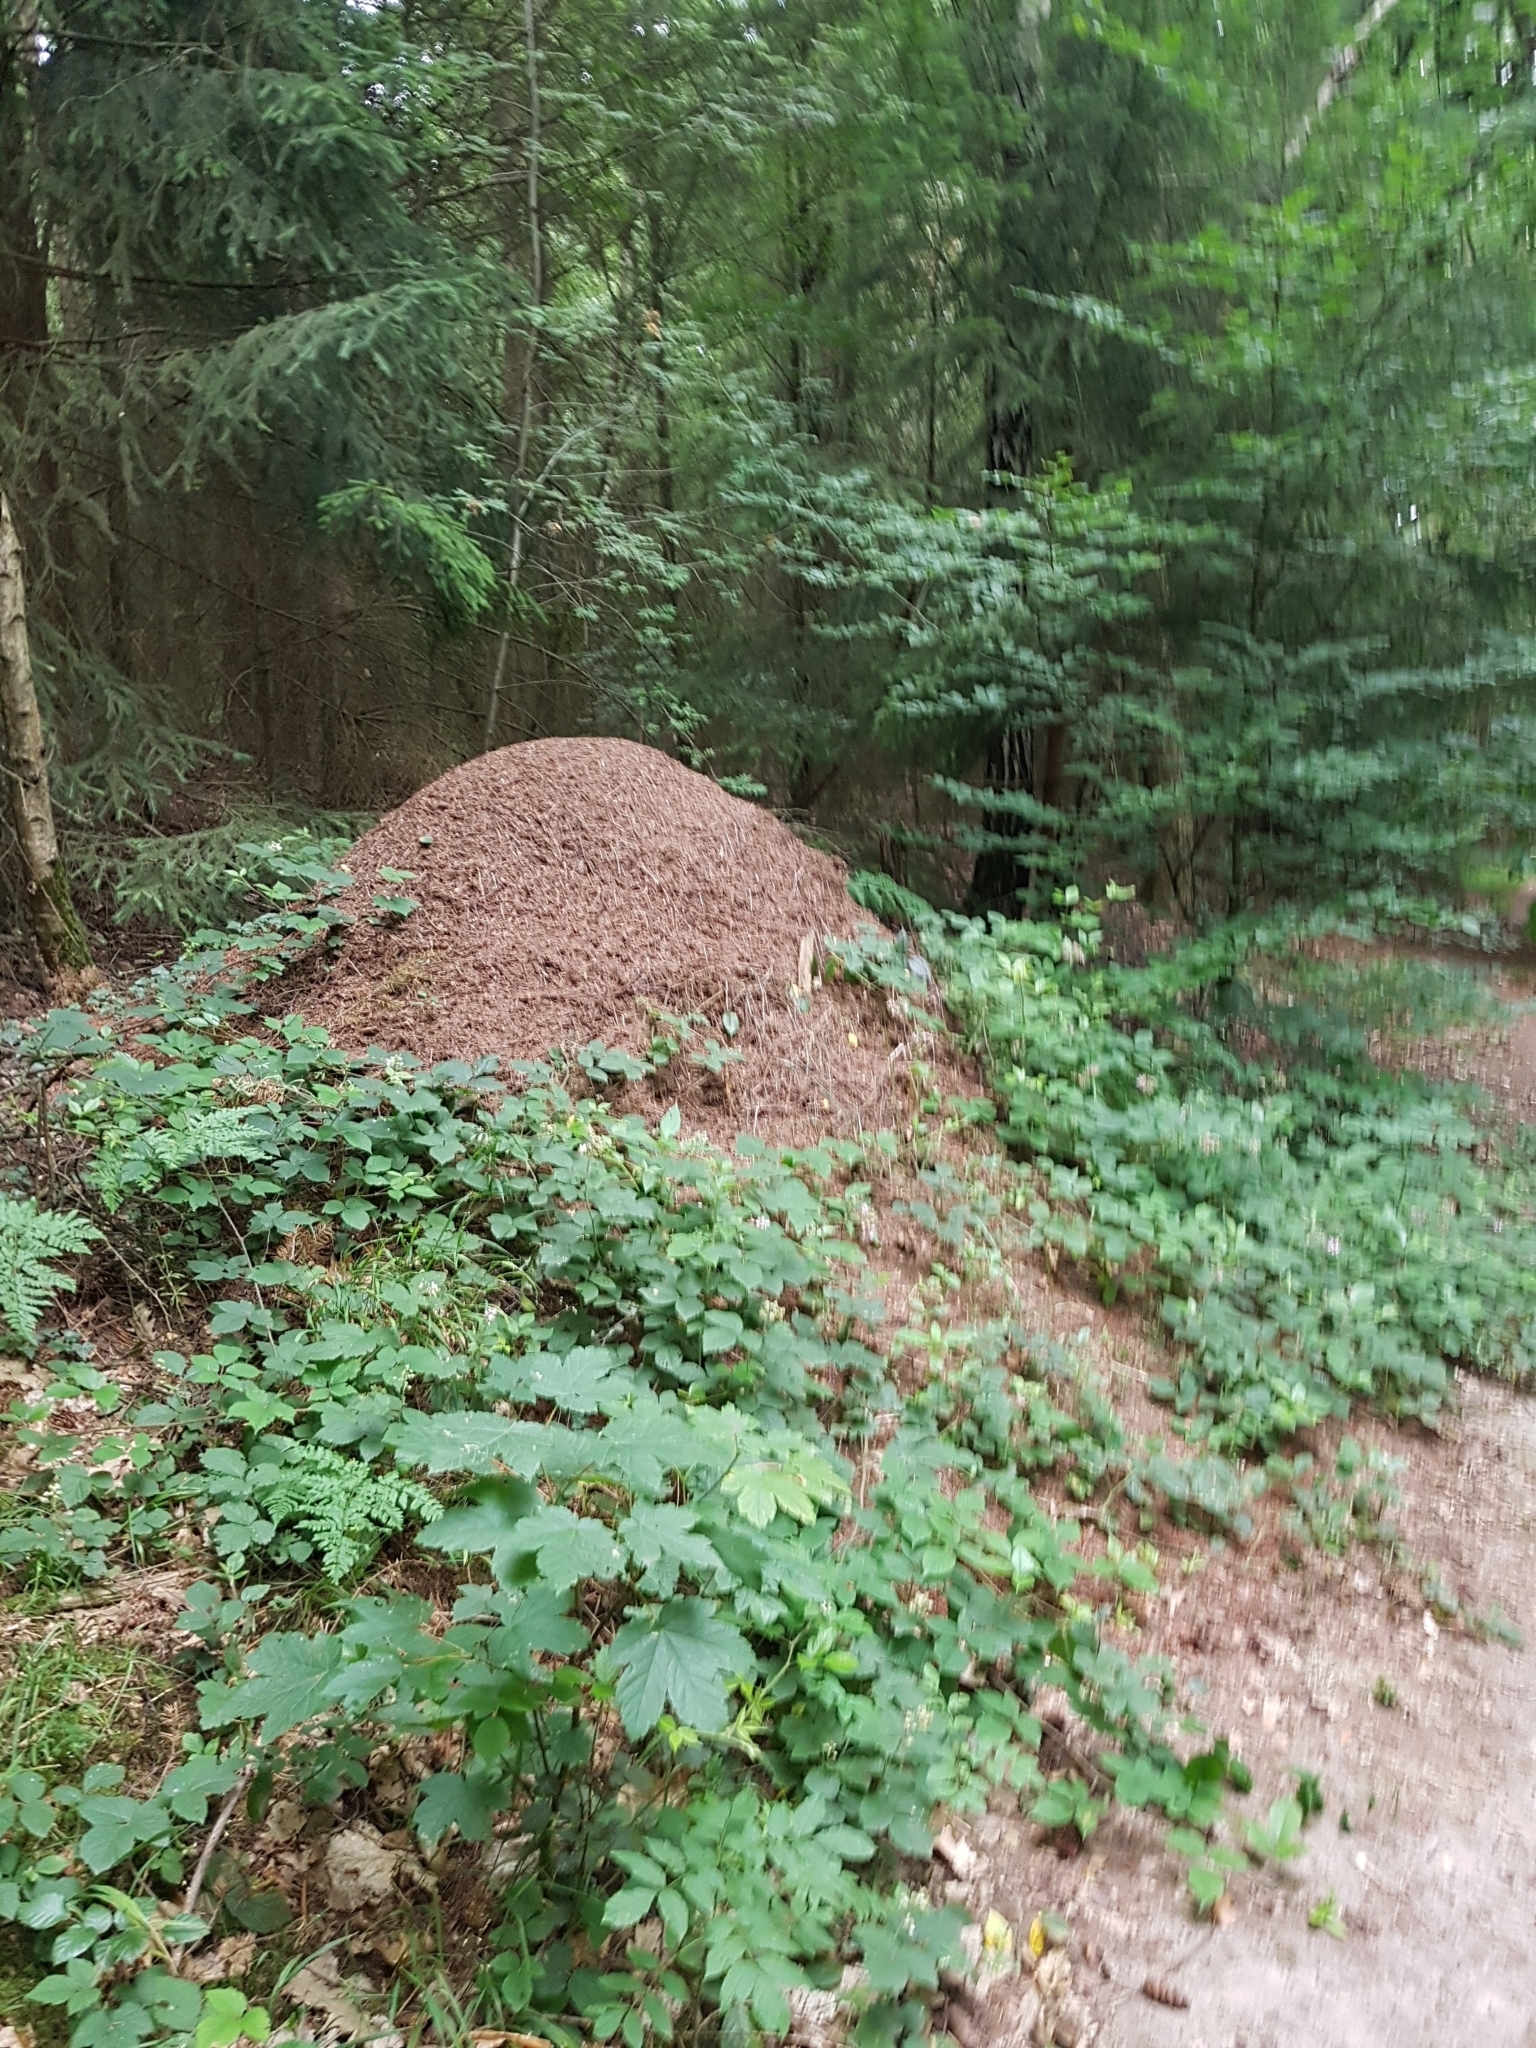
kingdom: Animalia
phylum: Arthropoda
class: Insecta
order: Hymenoptera
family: Formicidae
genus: Formica
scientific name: Formica
